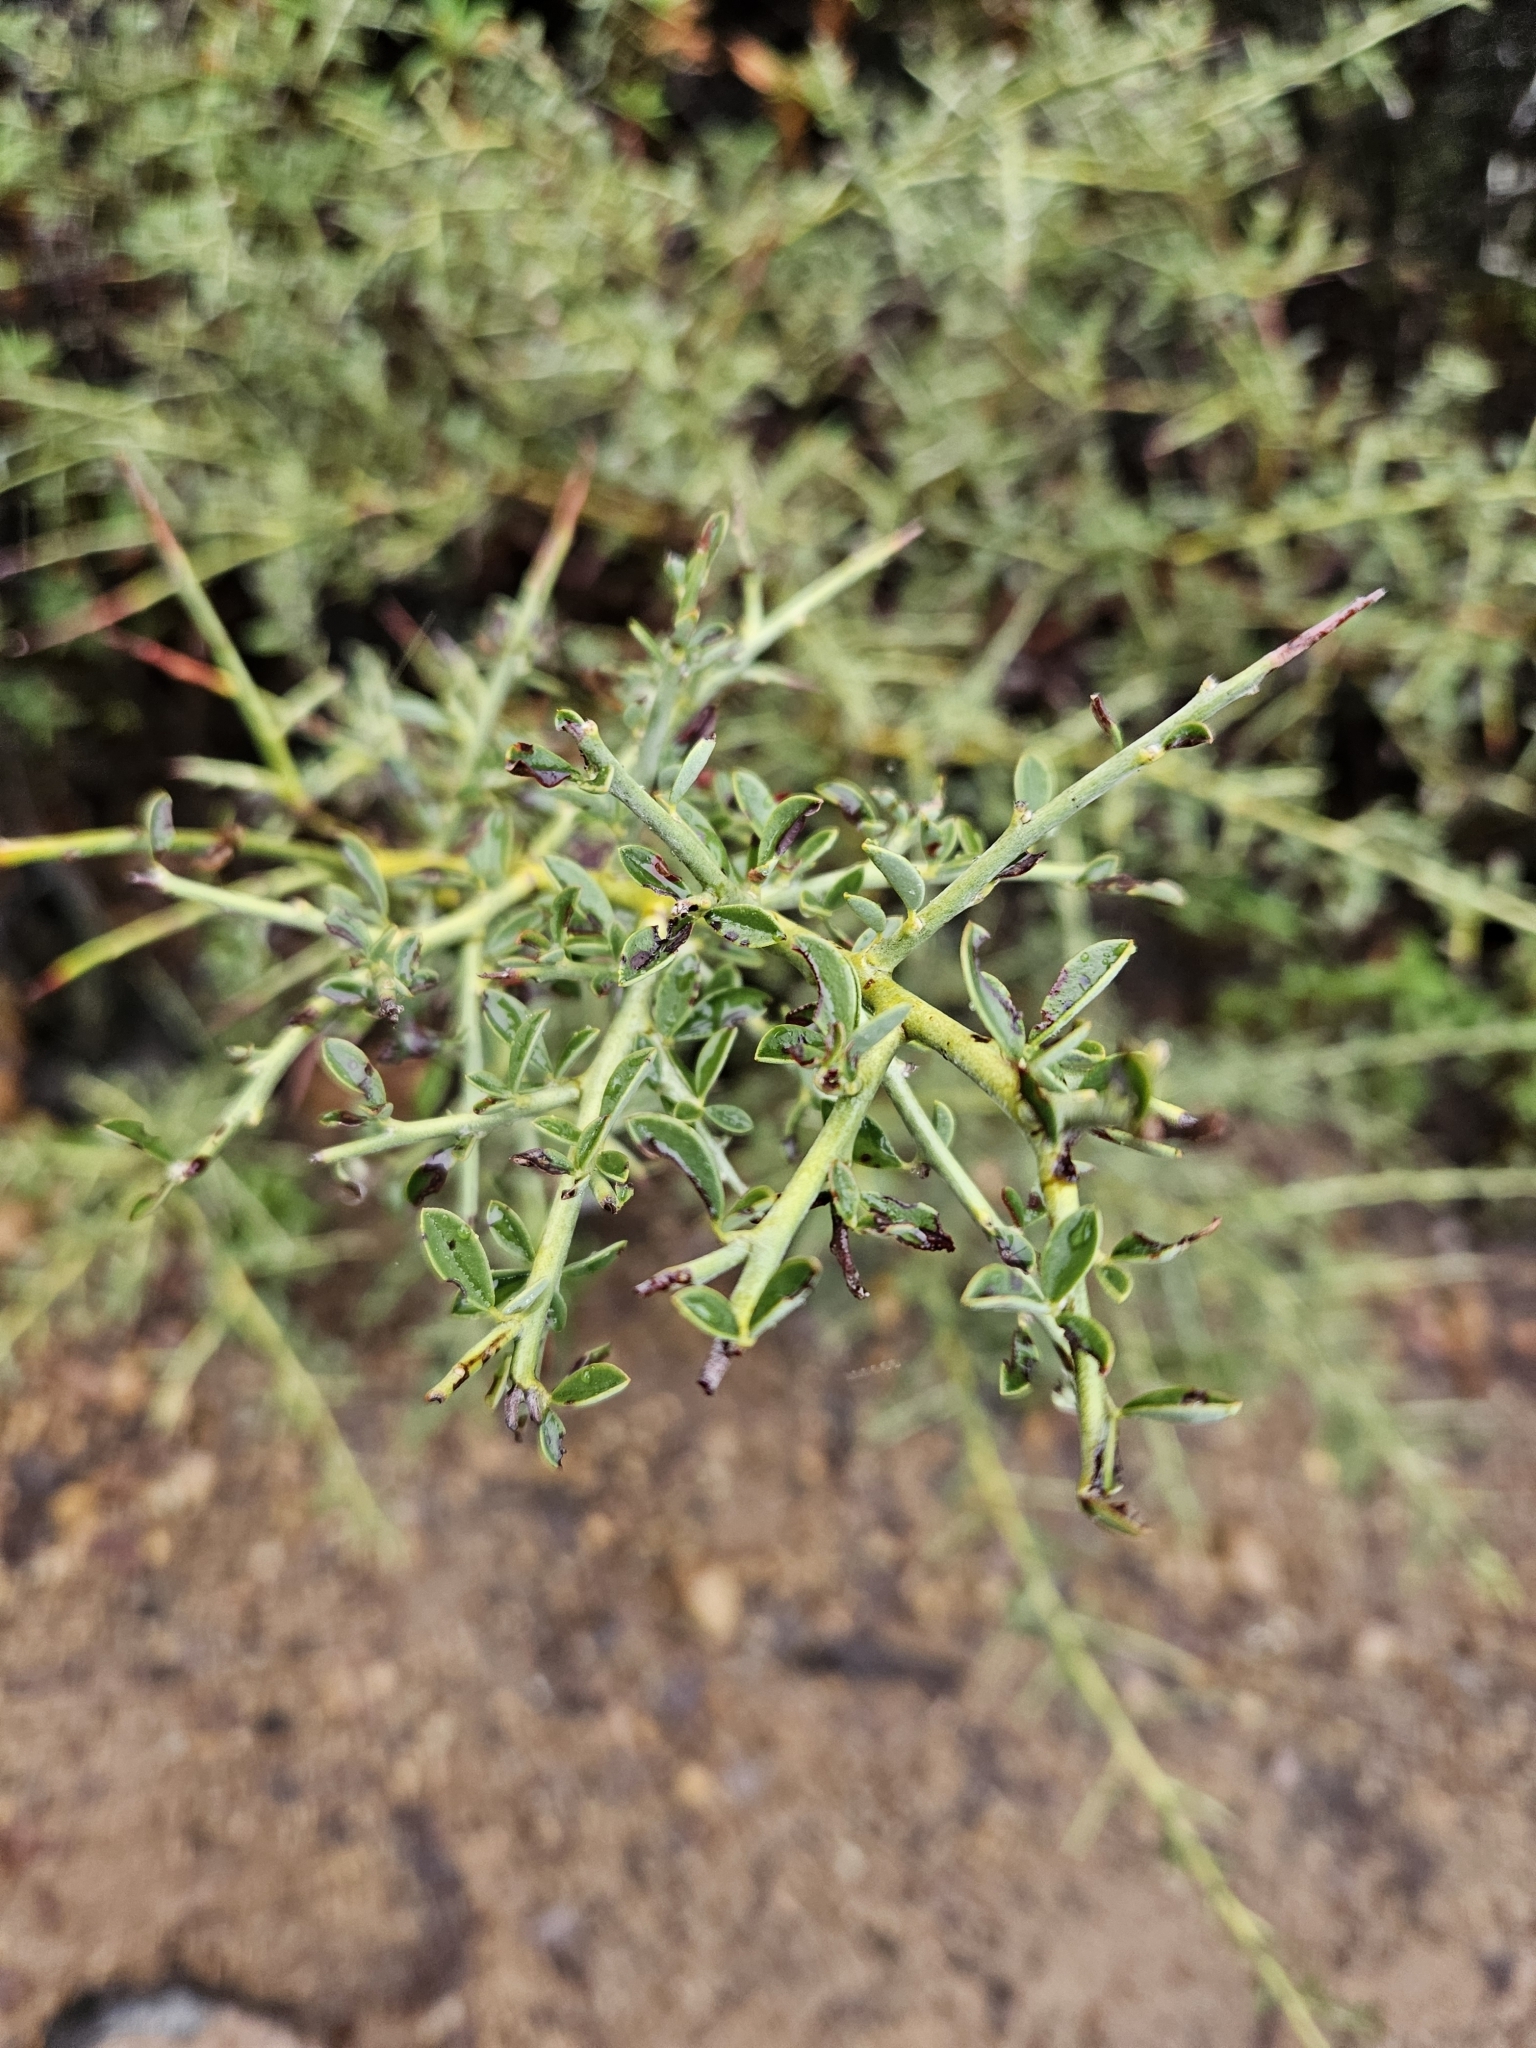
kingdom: Plantae
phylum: Tracheophyta
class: Magnoliopsida
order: Fabales
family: Fabaceae
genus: Pickeringia
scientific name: Pickeringia montana
